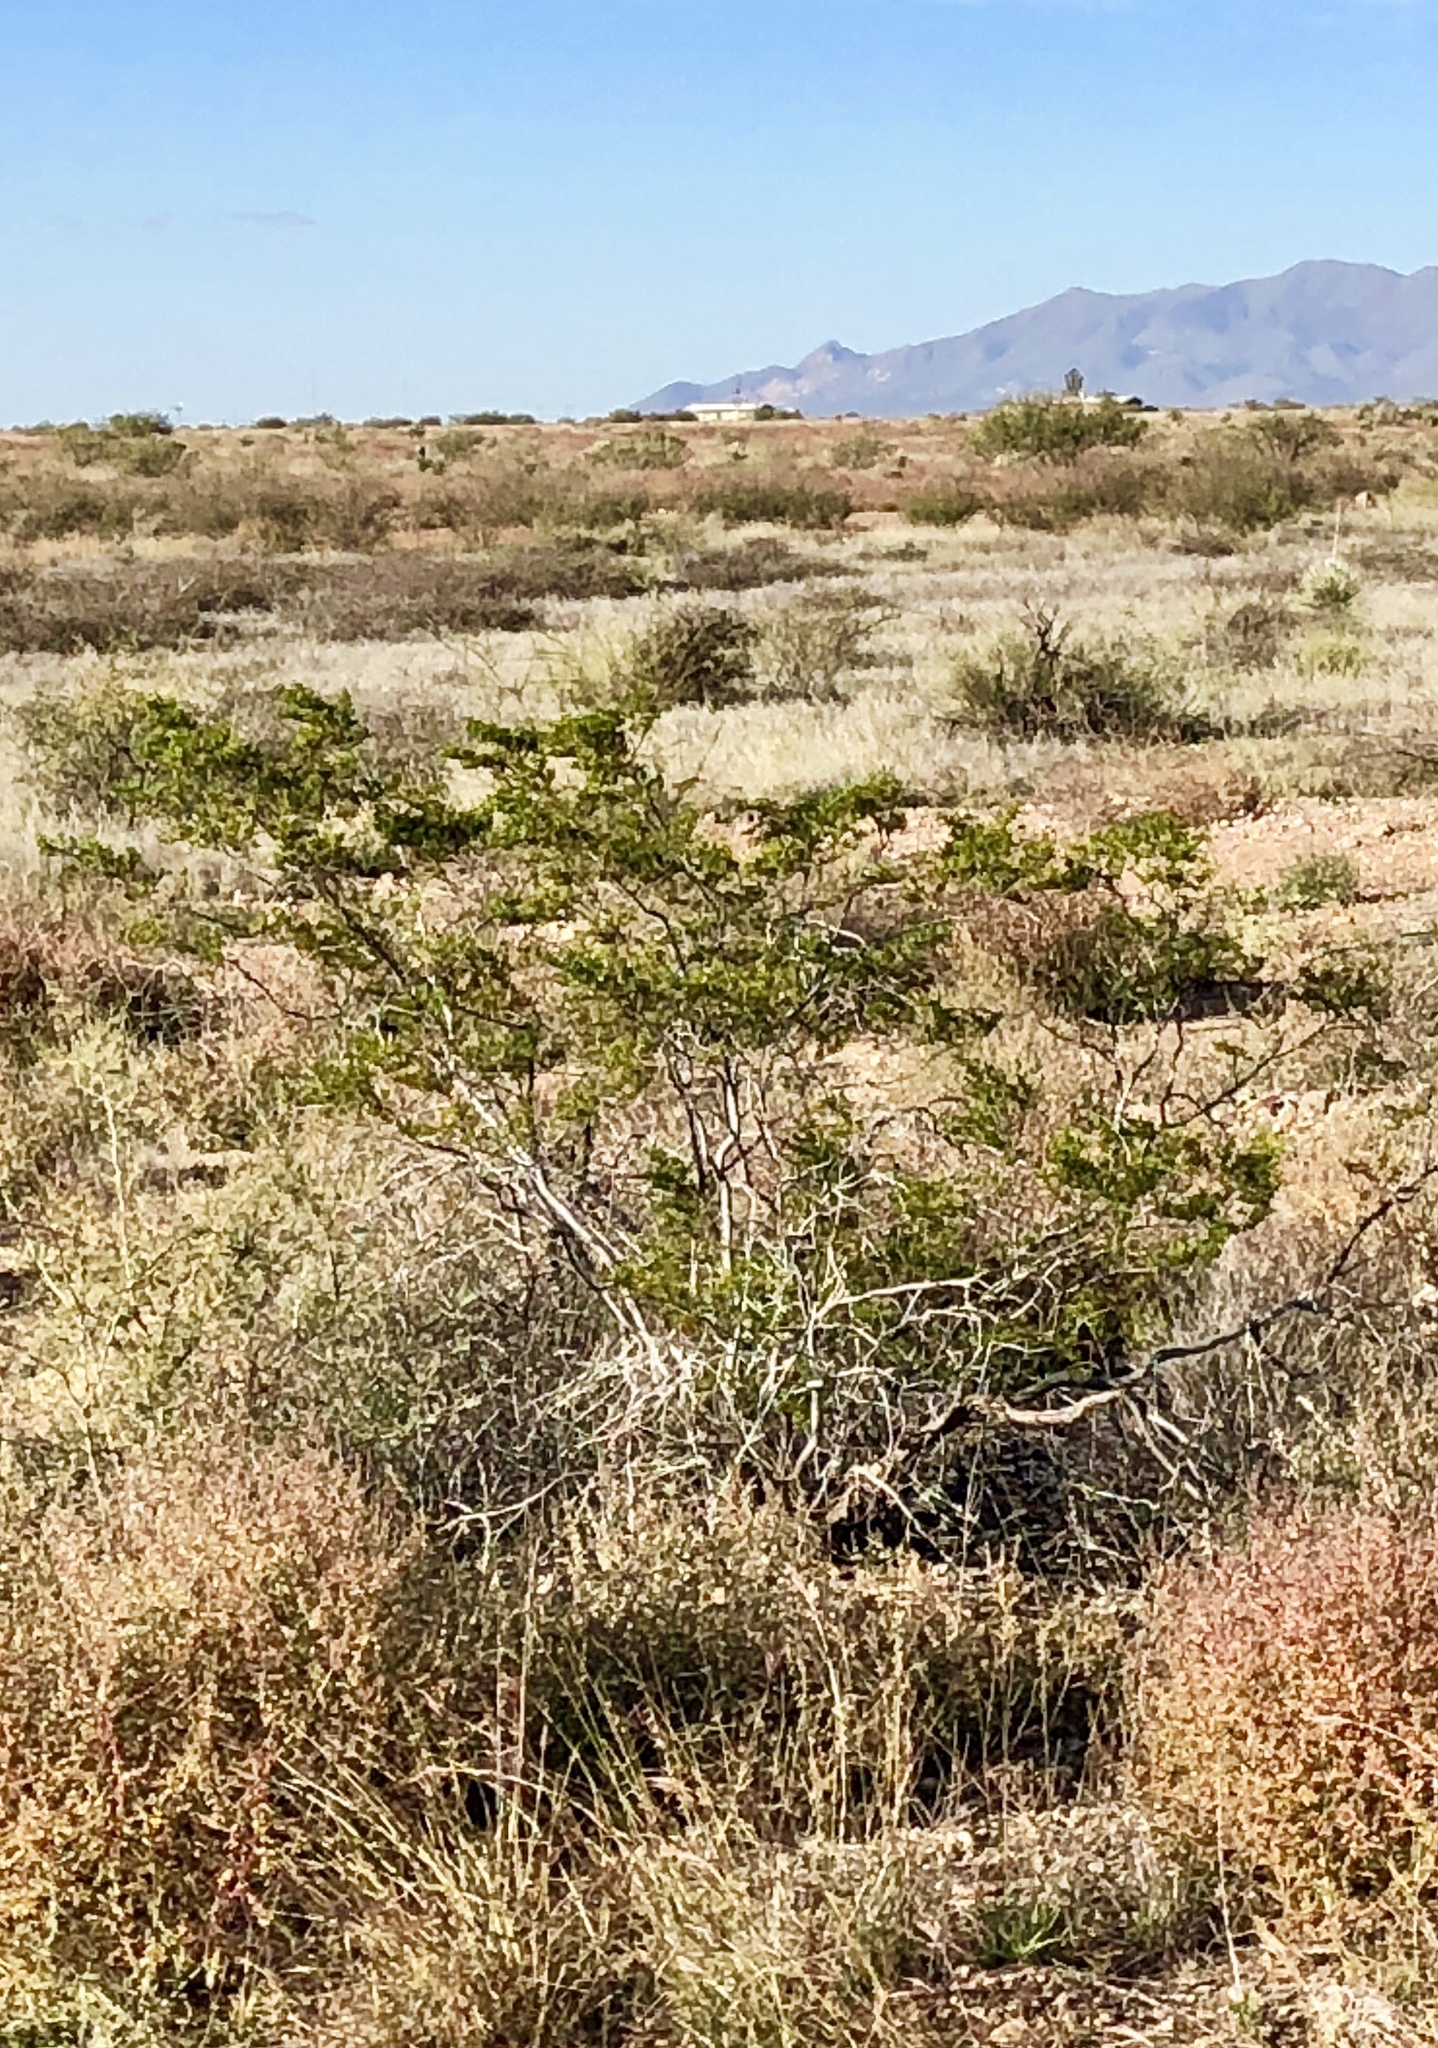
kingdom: Plantae
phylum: Tracheophyta
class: Magnoliopsida
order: Zygophyllales
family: Zygophyllaceae
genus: Larrea
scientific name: Larrea tridentata
